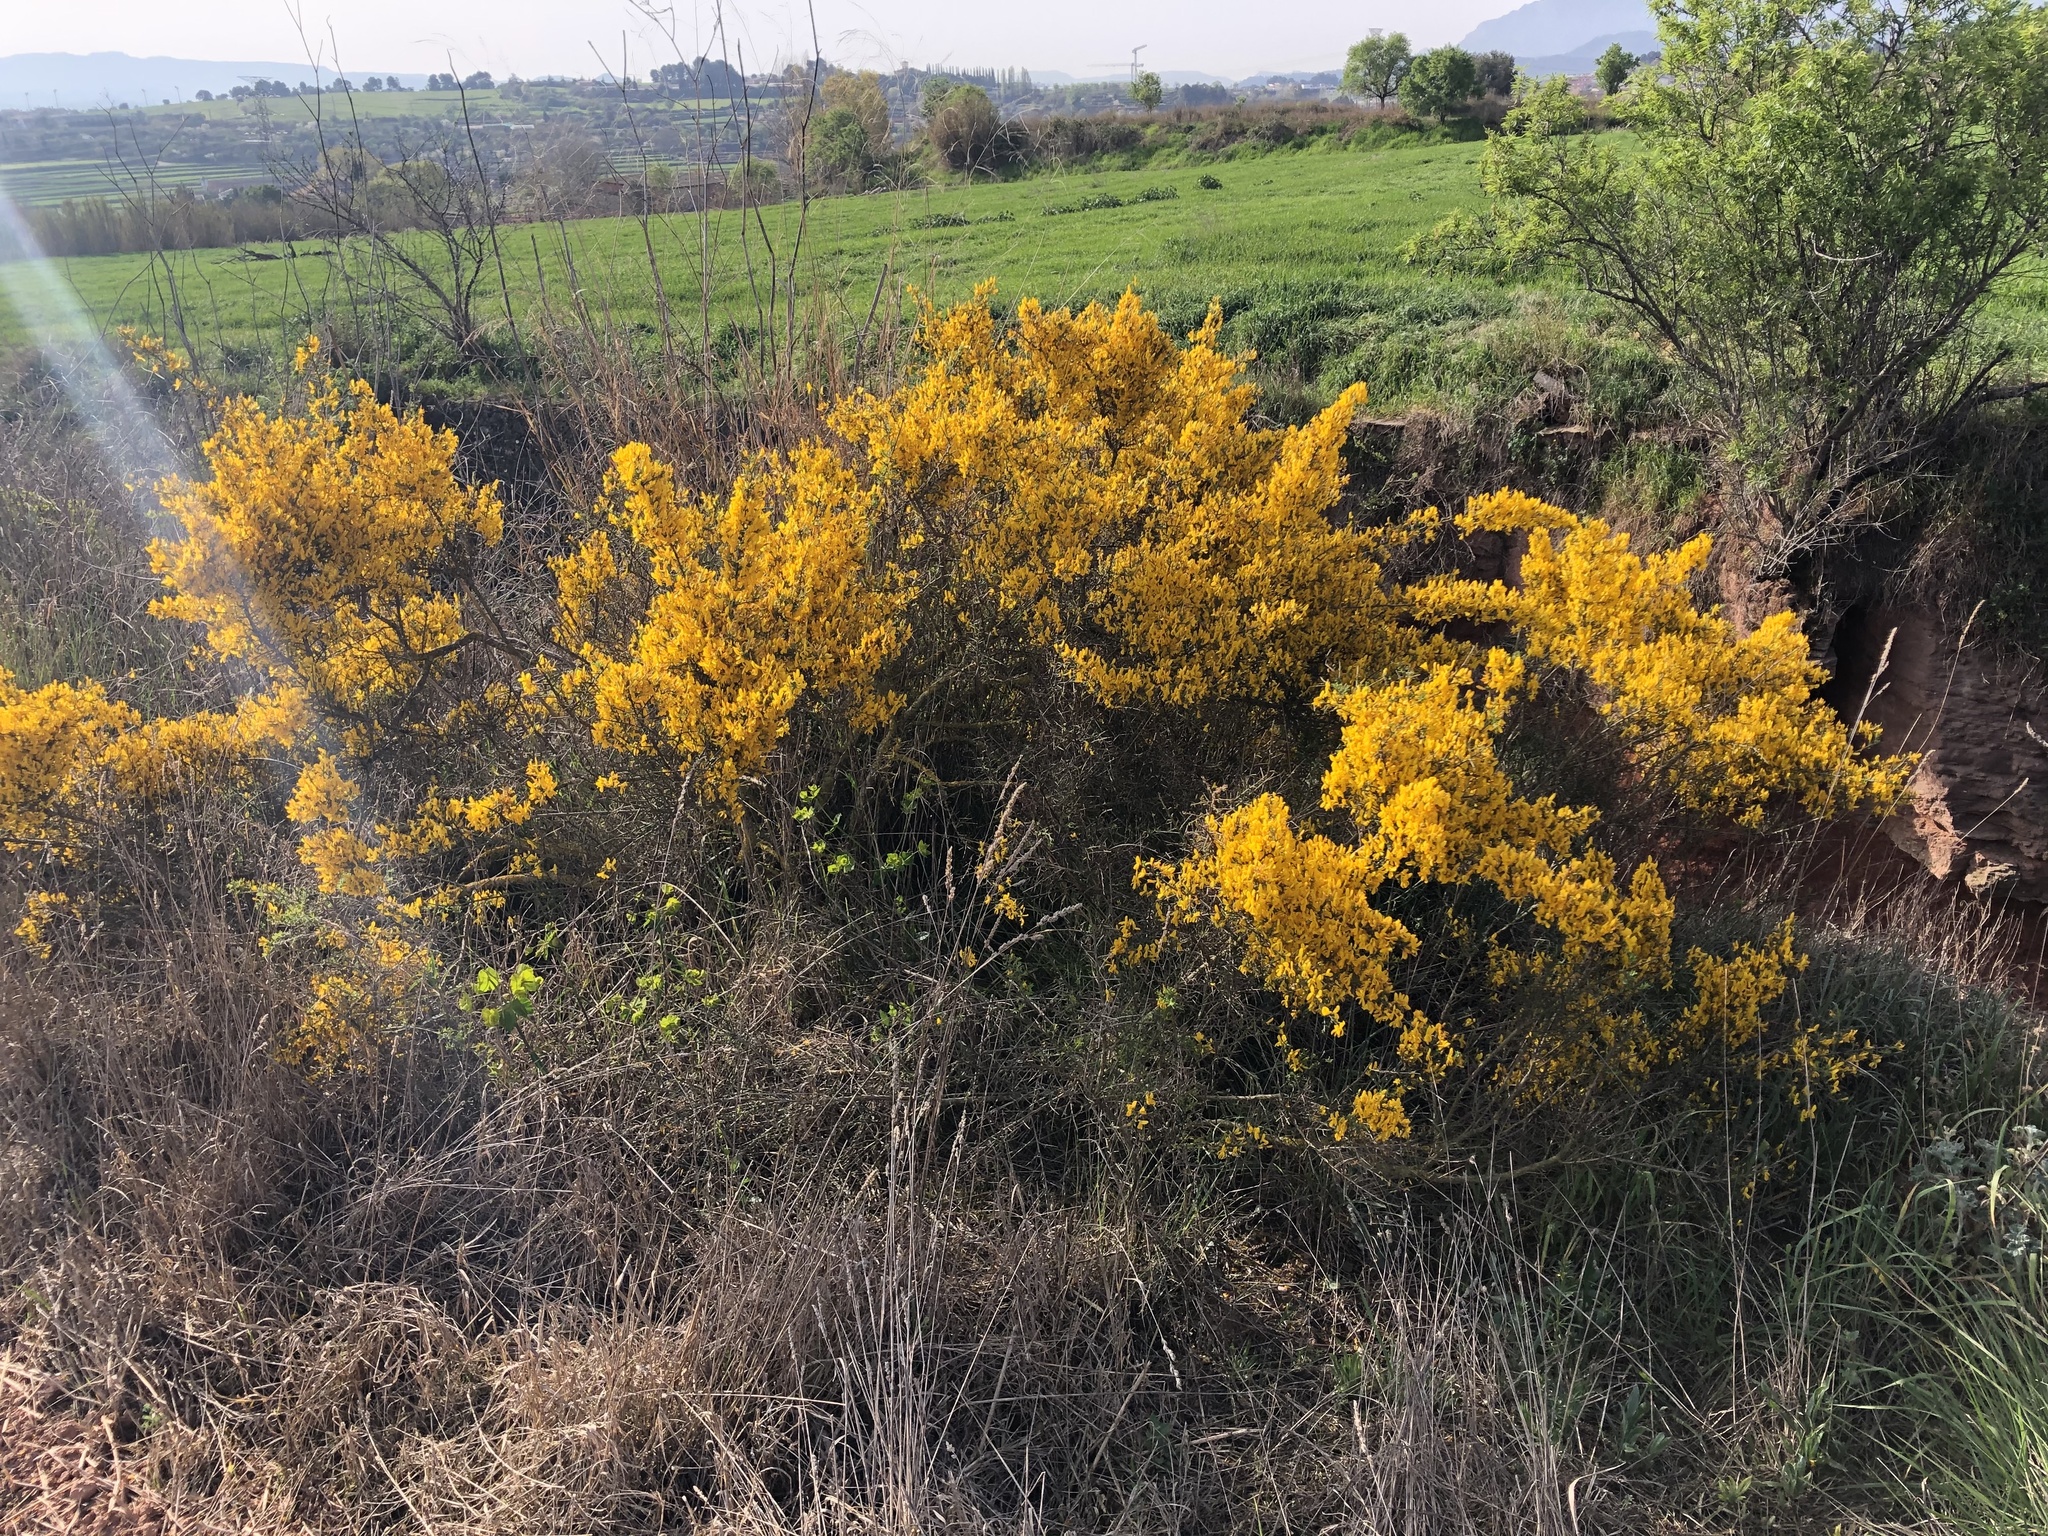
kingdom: Plantae
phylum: Tracheophyta
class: Magnoliopsida
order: Fabales
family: Fabaceae
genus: Genista
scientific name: Genista scorpius
